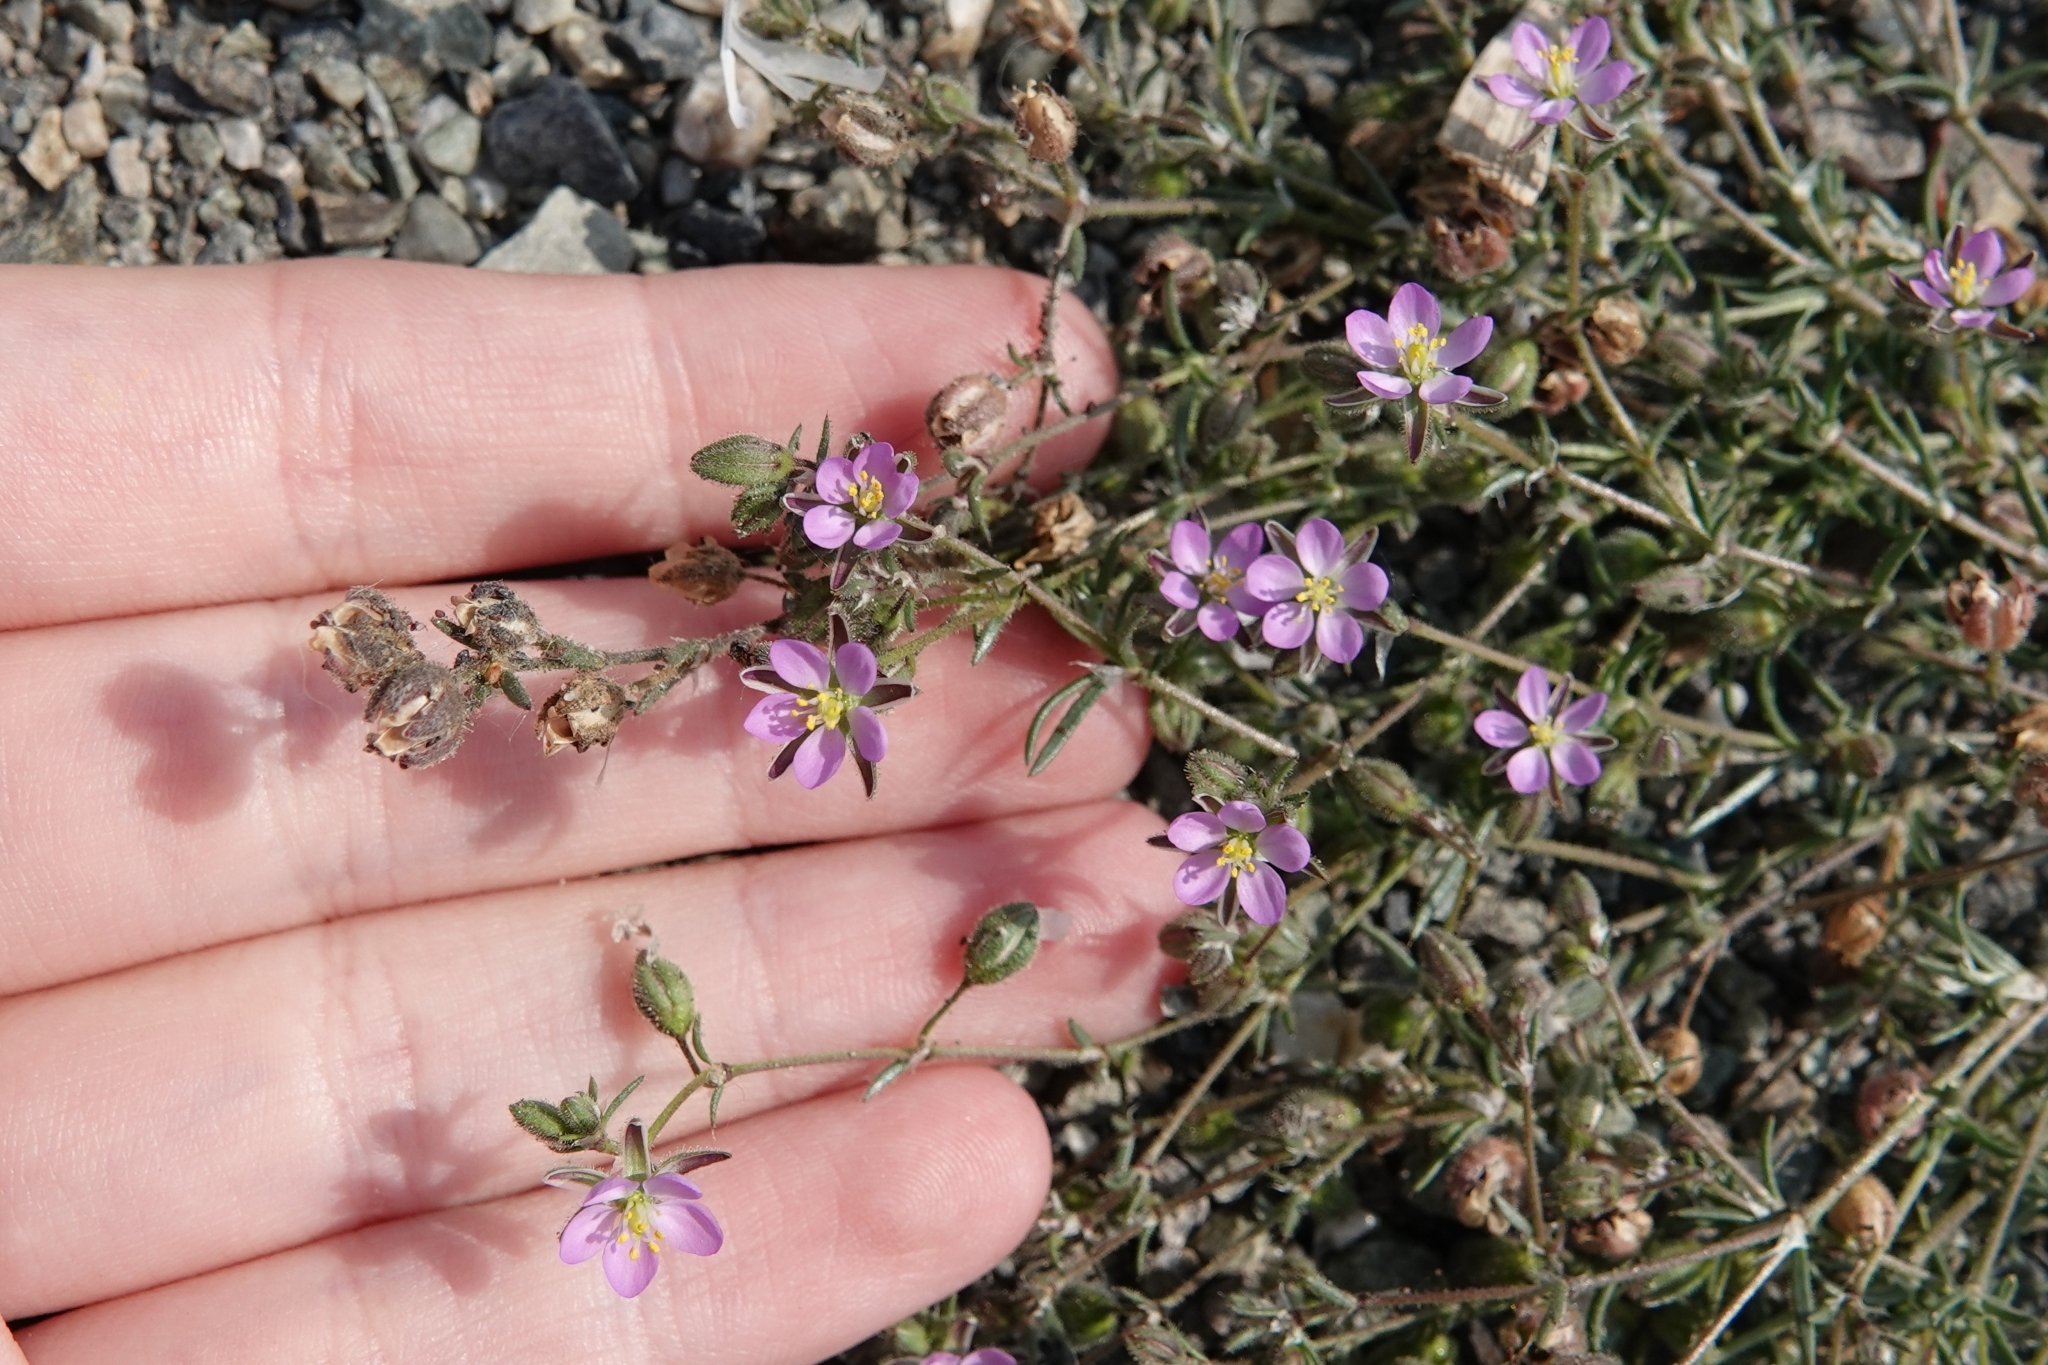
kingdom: Plantae
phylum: Tracheophyta
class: Magnoliopsida
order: Caryophyllales
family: Caryophyllaceae
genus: Spergularia
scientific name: Spergularia rubra
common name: Red sand-spurrey
